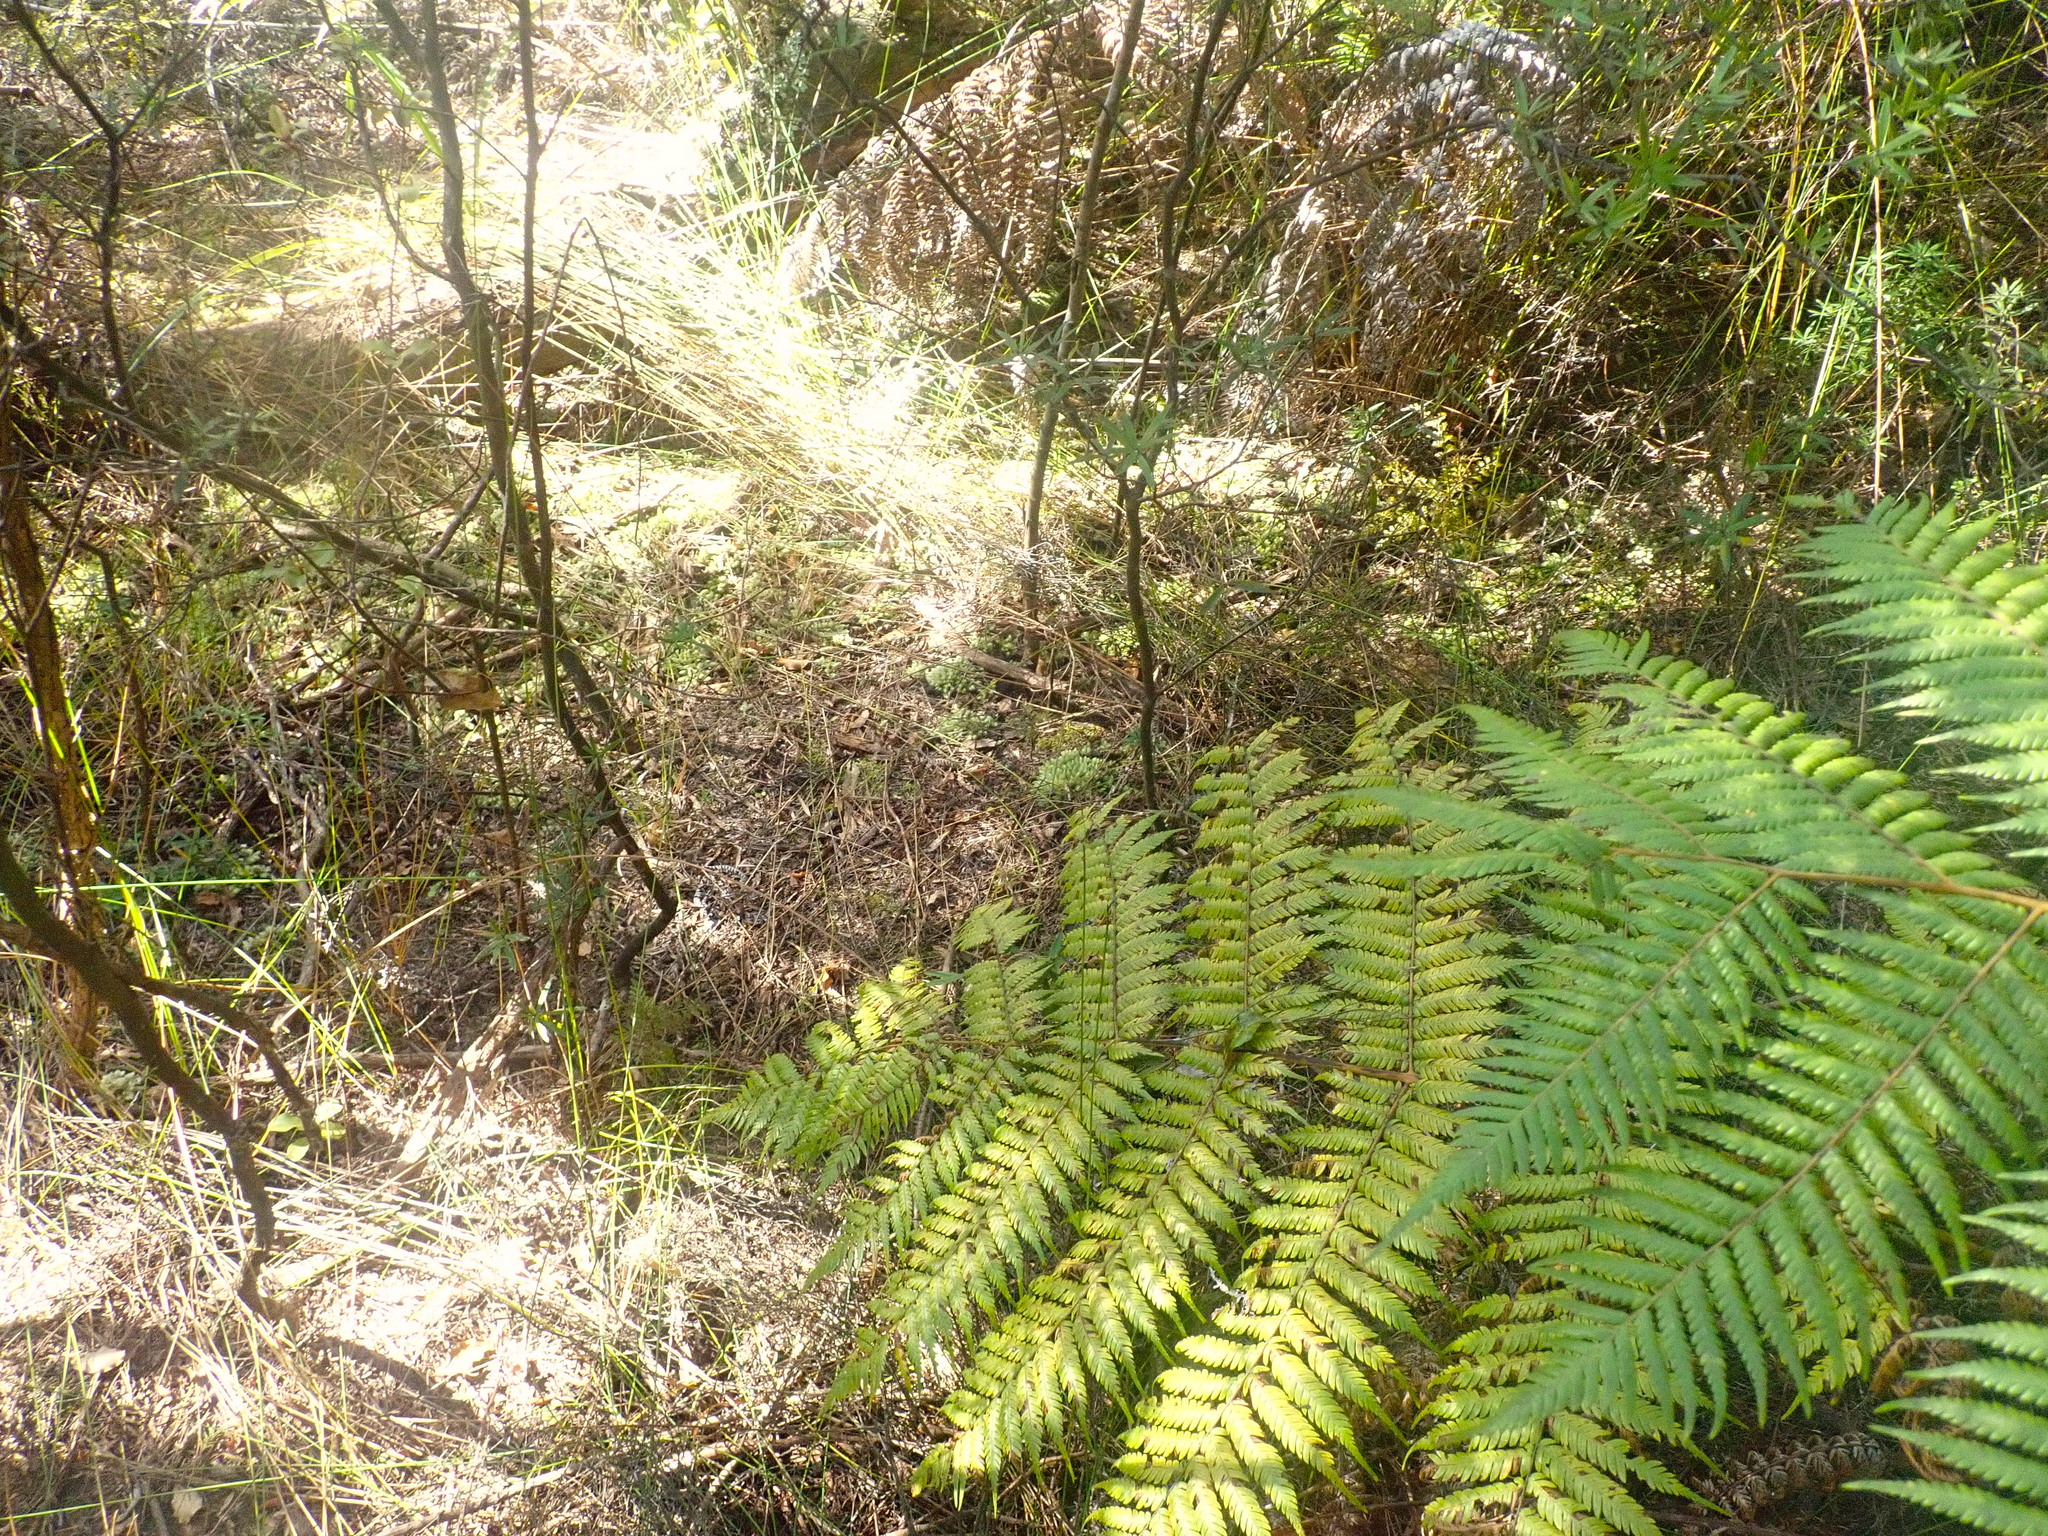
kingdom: Plantae
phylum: Tracheophyta
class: Polypodiopsida
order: Cyatheales
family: Cyatheaceae
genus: Alsophila
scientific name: Alsophila dealbata
